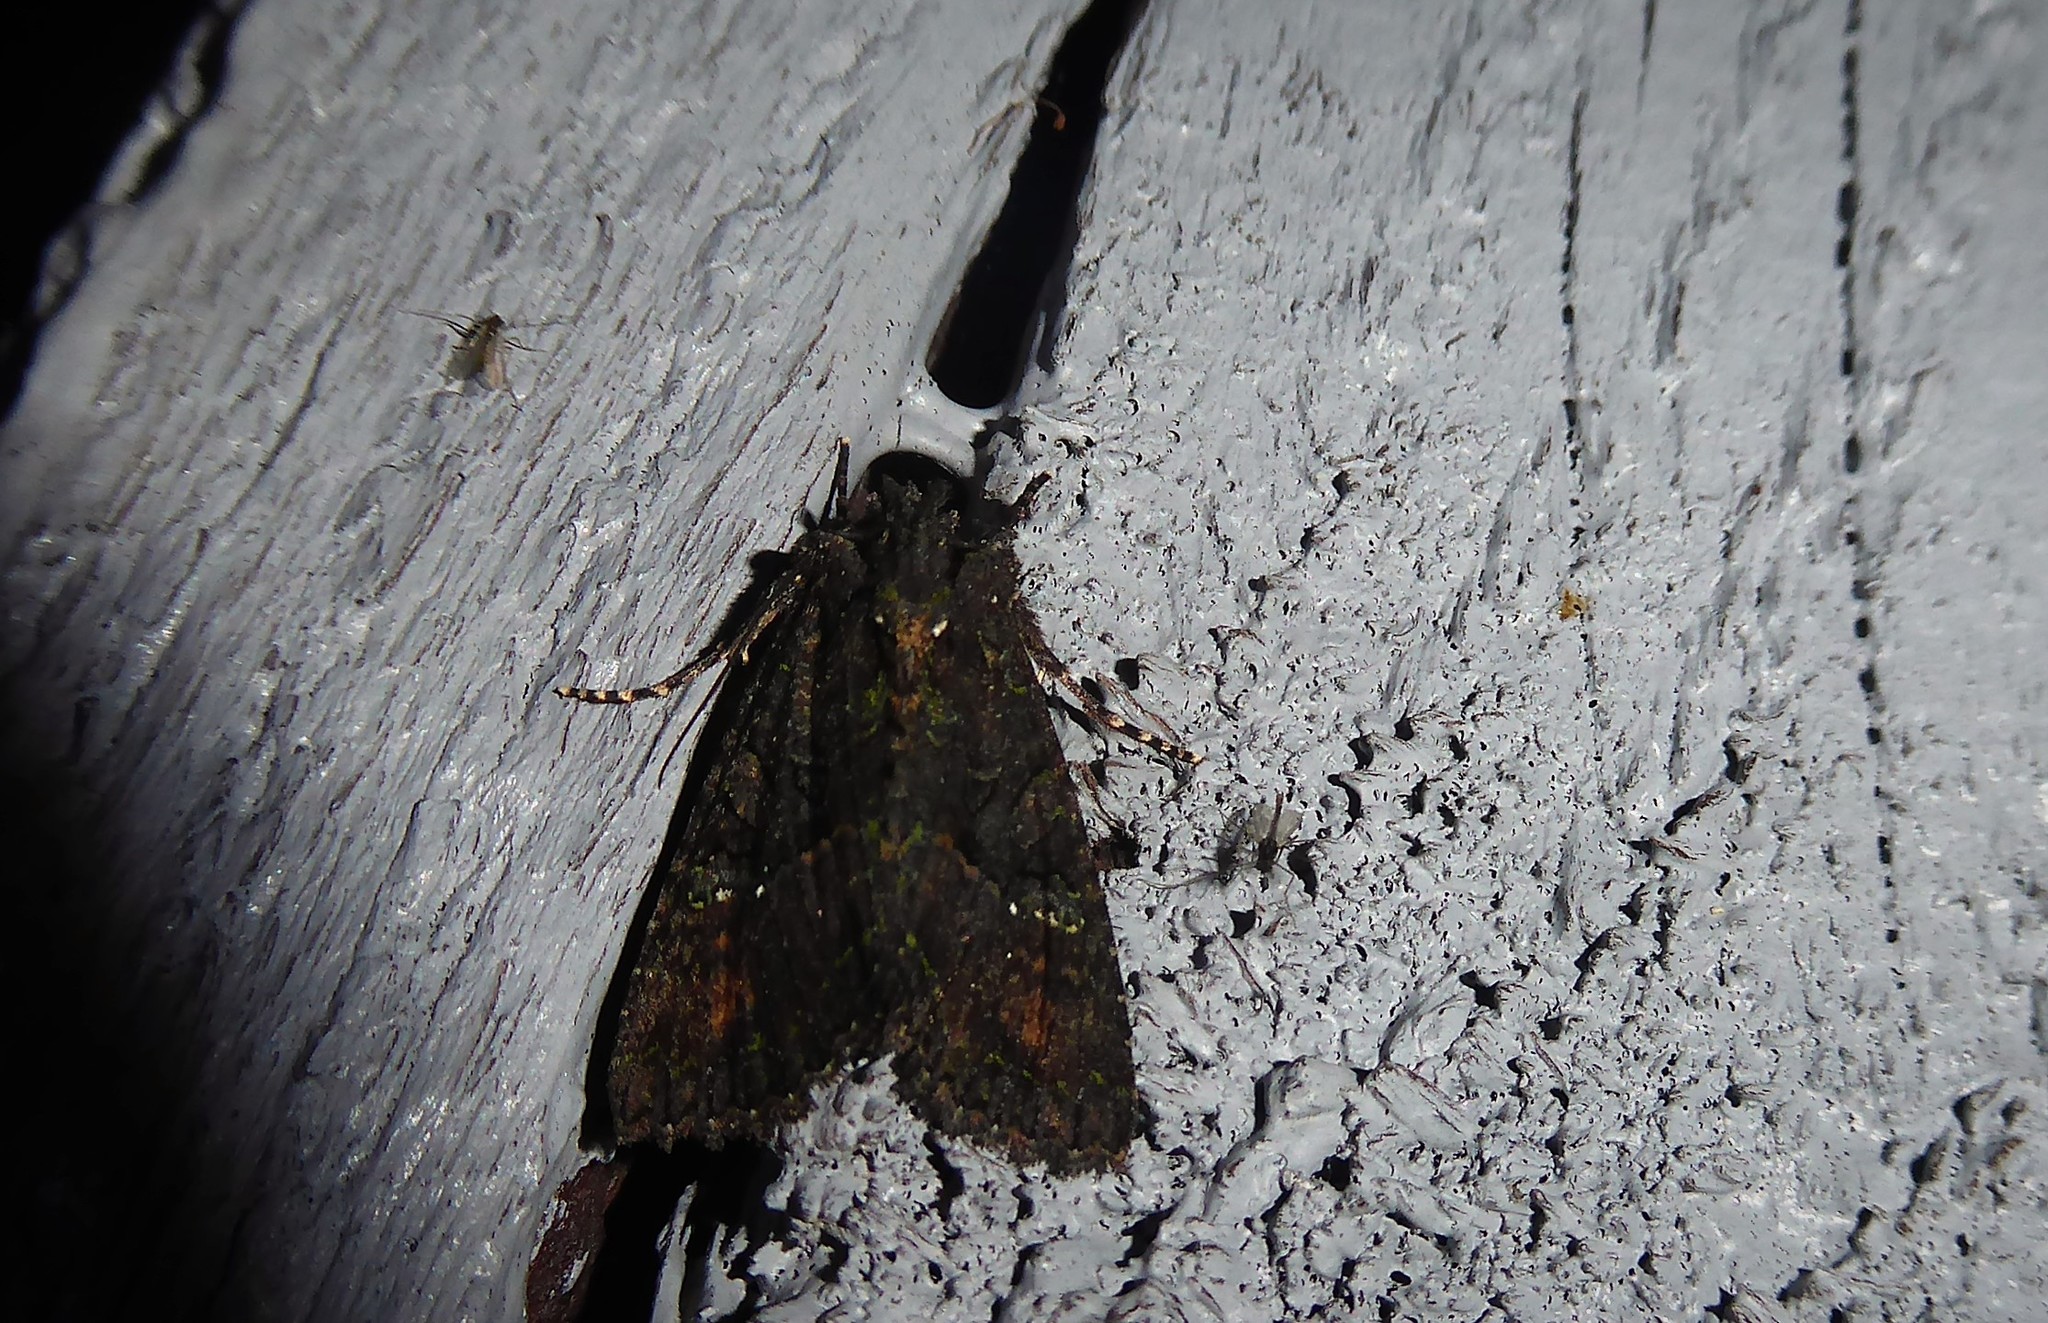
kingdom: Animalia
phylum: Arthropoda
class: Insecta
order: Lepidoptera
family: Noctuidae
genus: Meterana
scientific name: Meterana ochthistis
